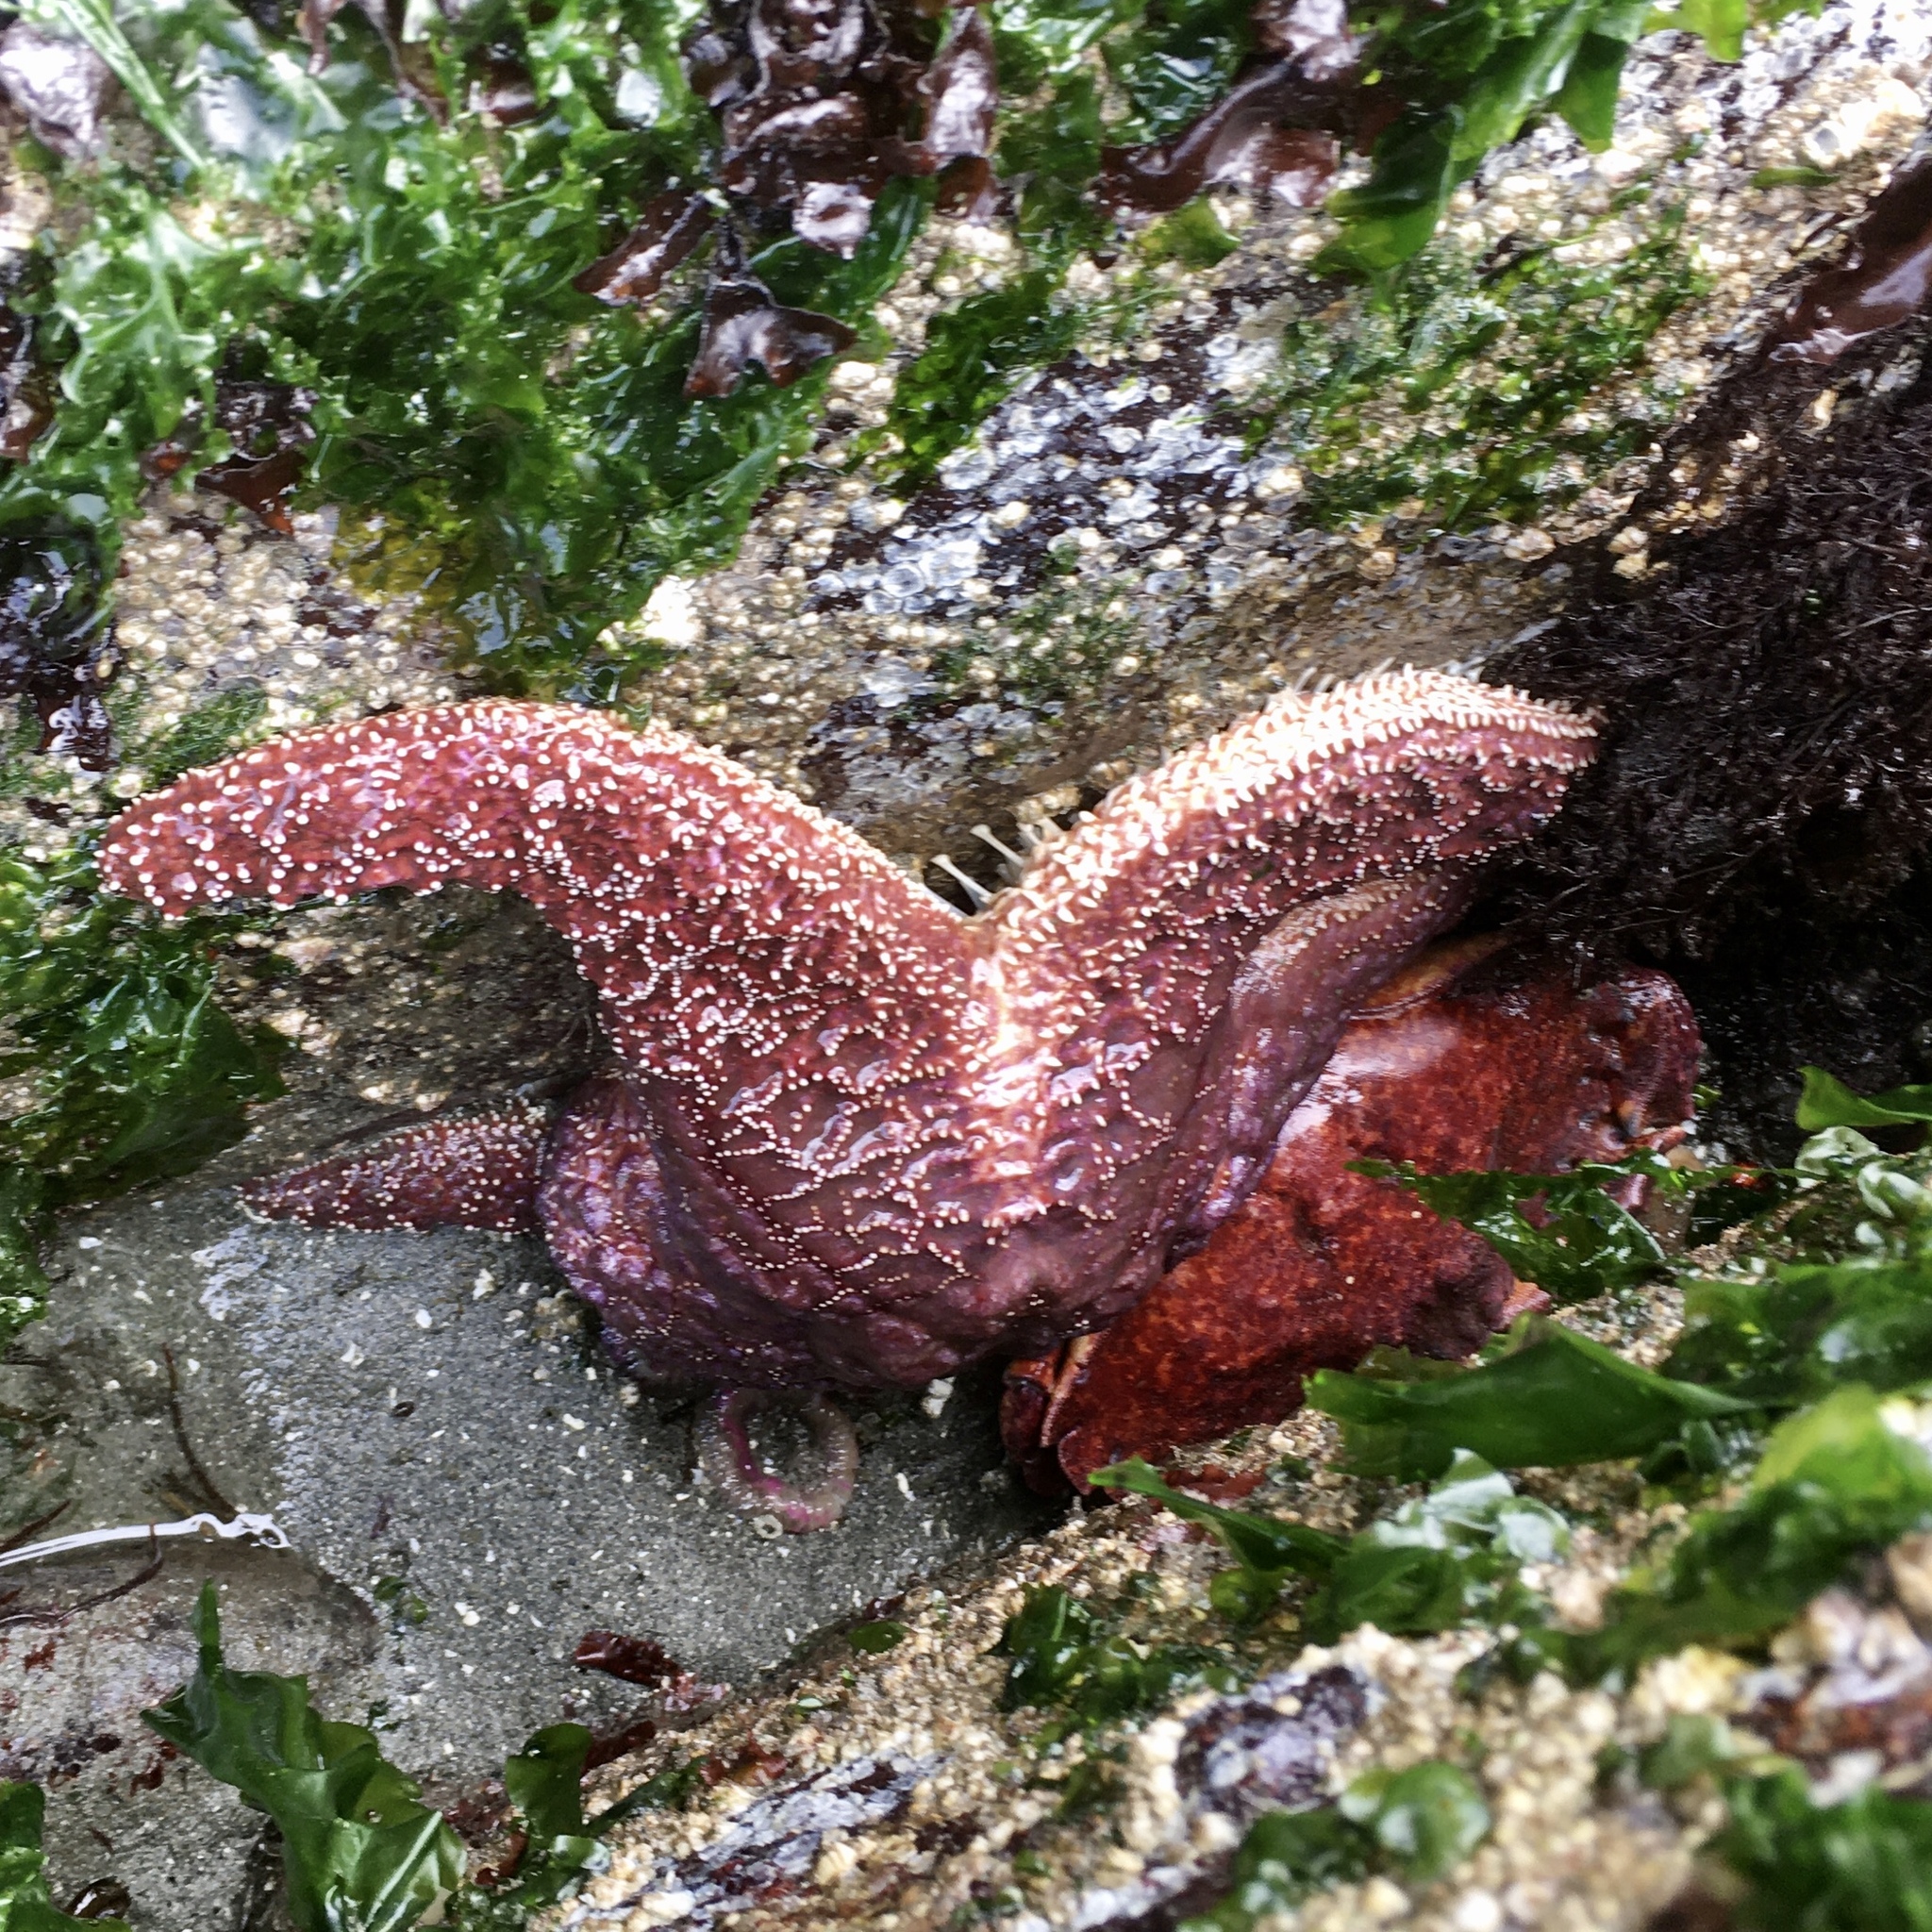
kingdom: Animalia
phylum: Echinodermata
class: Asteroidea
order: Forcipulatida
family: Asteriidae
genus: Pisaster
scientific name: Pisaster ochraceus
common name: Ochre stars
